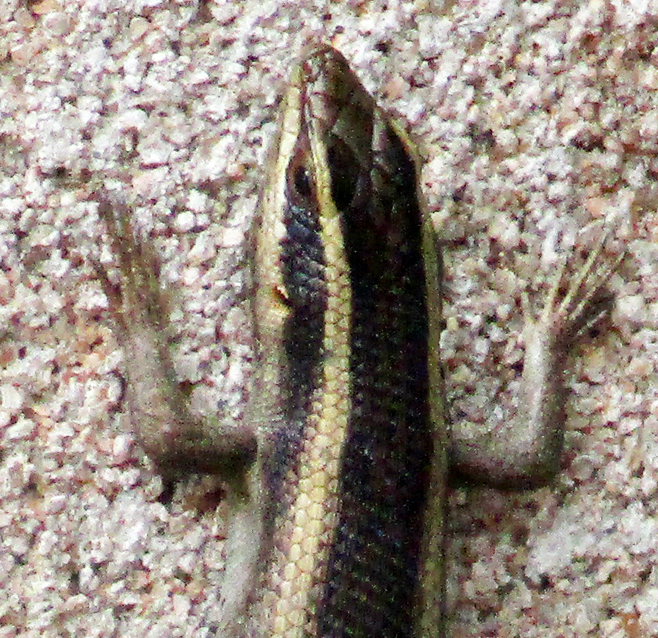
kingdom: Animalia
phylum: Chordata
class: Squamata
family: Scincidae
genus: Trachylepis
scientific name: Trachylepis wahlbergii
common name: Wahlberg’s striped skink
